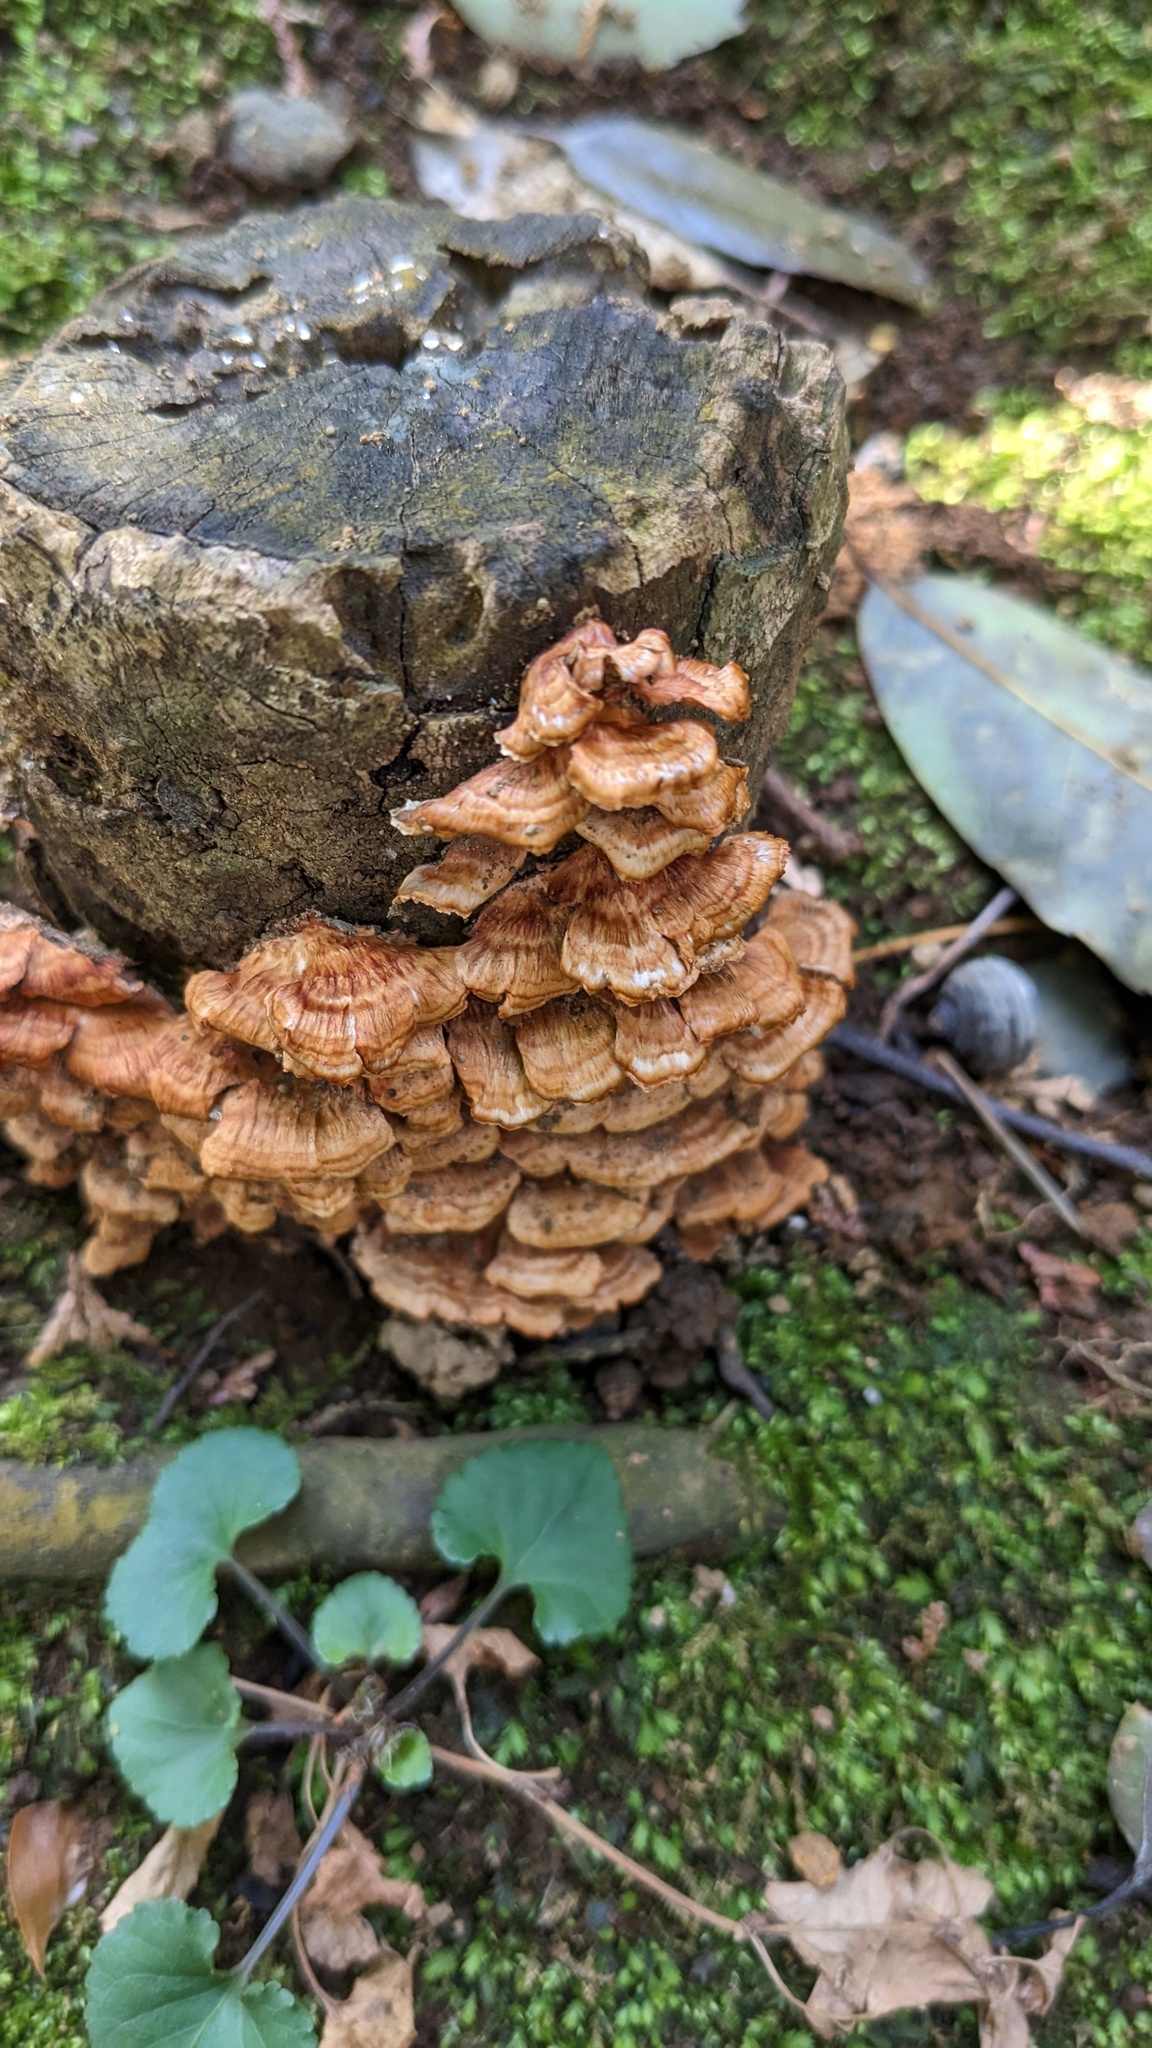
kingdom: Fungi
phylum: Basidiomycota
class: Agaricomycetes
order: Polyporales
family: Irpicaceae
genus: Irpex
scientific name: Irpex consors
